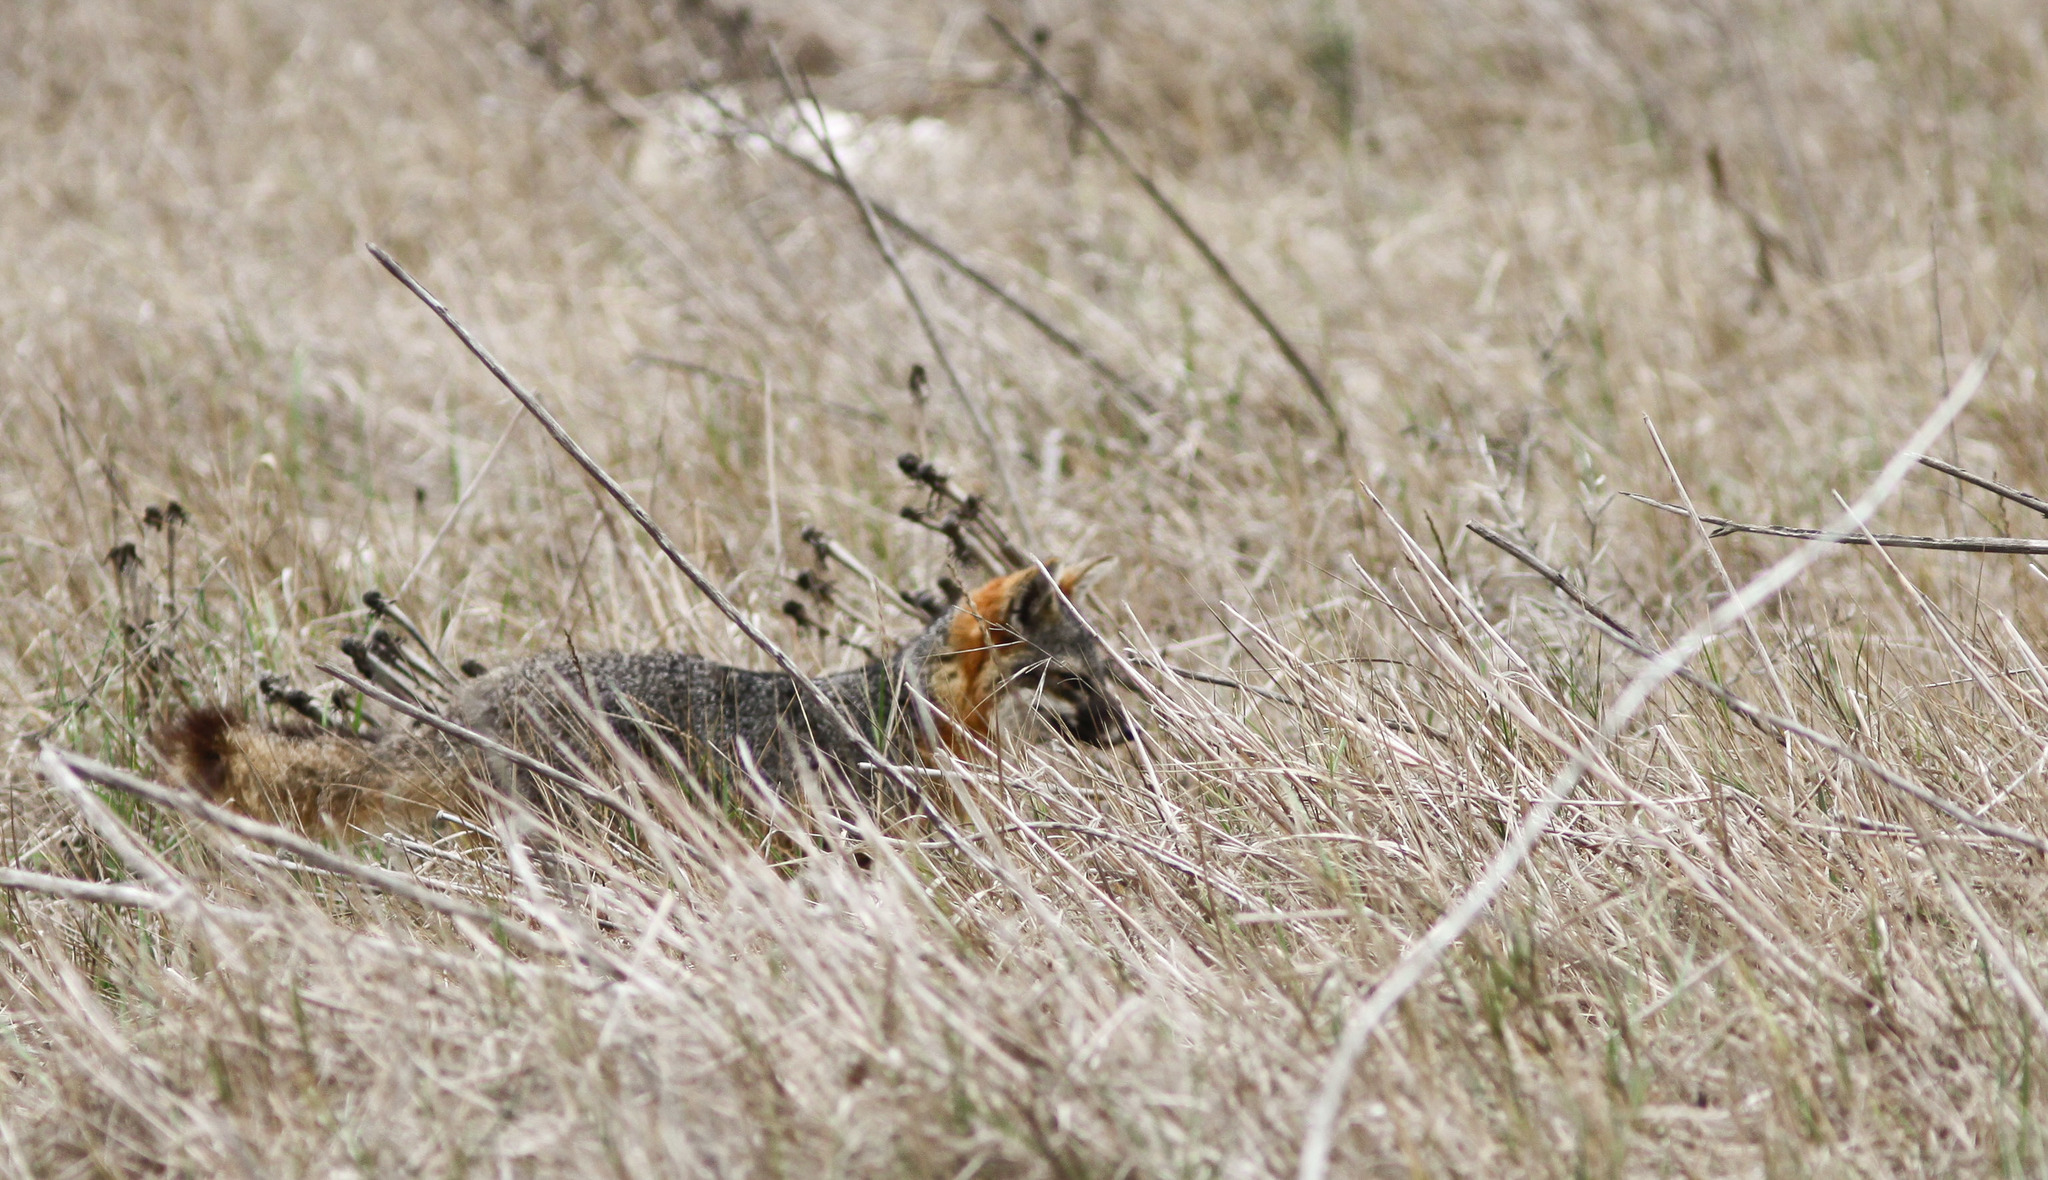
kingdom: Animalia
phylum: Chordata
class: Mammalia
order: Carnivora
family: Canidae
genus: Urocyon
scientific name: Urocyon littoralis
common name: Island gray fox
